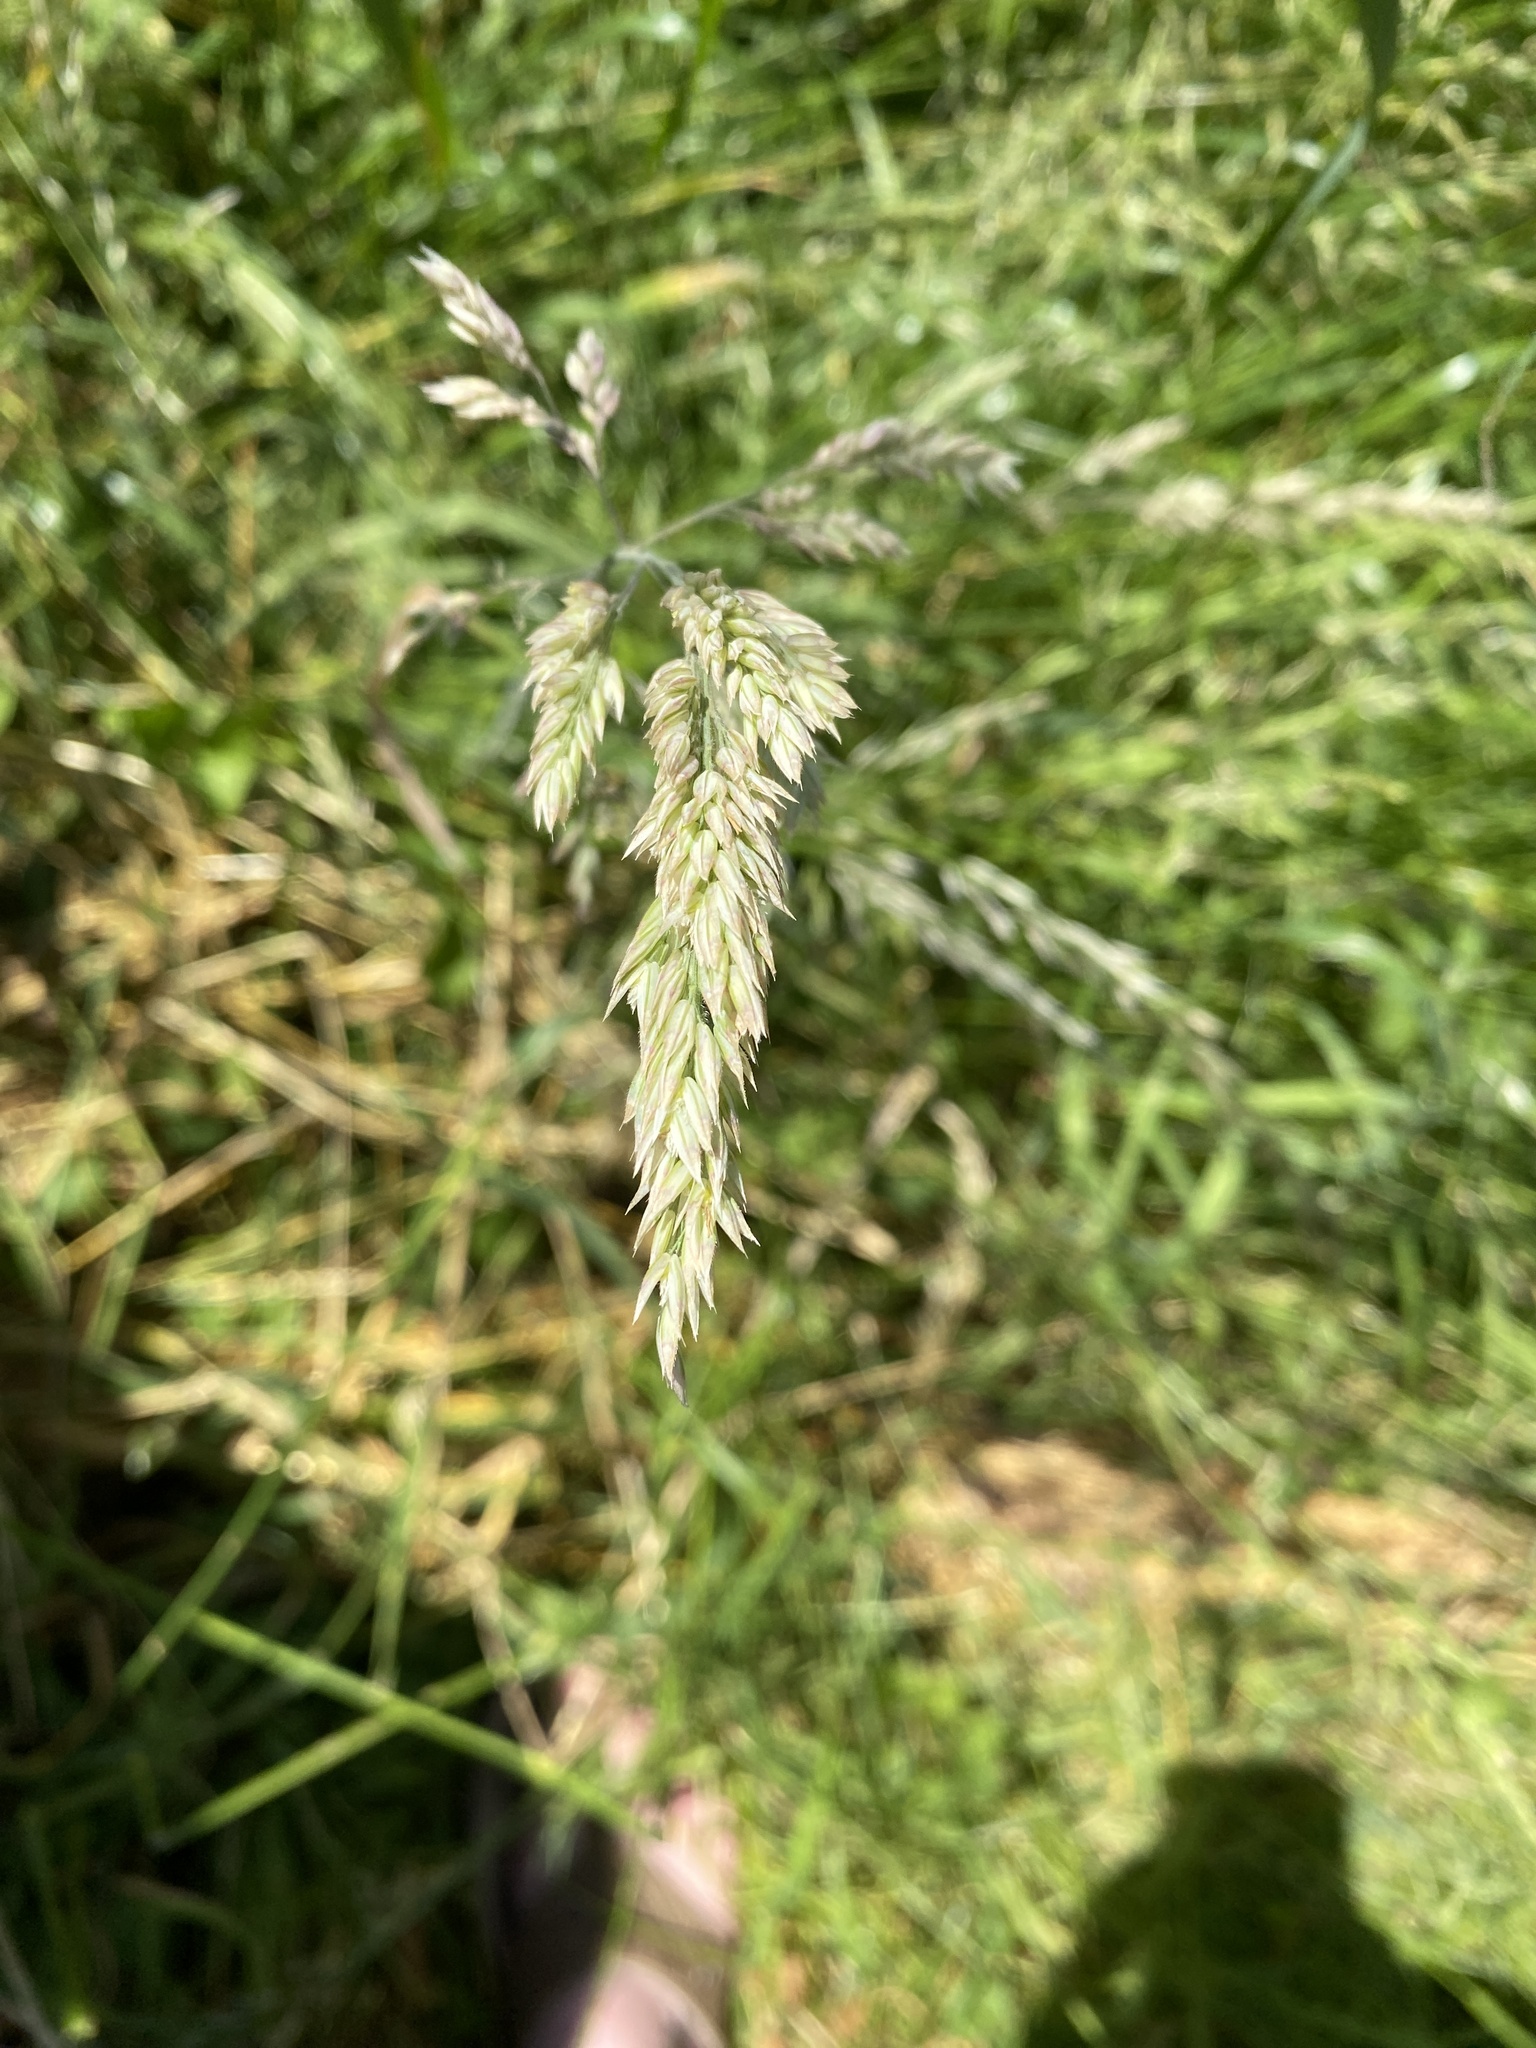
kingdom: Plantae
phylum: Tracheophyta
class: Liliopsida
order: Poales
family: Poaceae
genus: Holcus
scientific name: Holcus lanatus
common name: Yorkshire-fog
